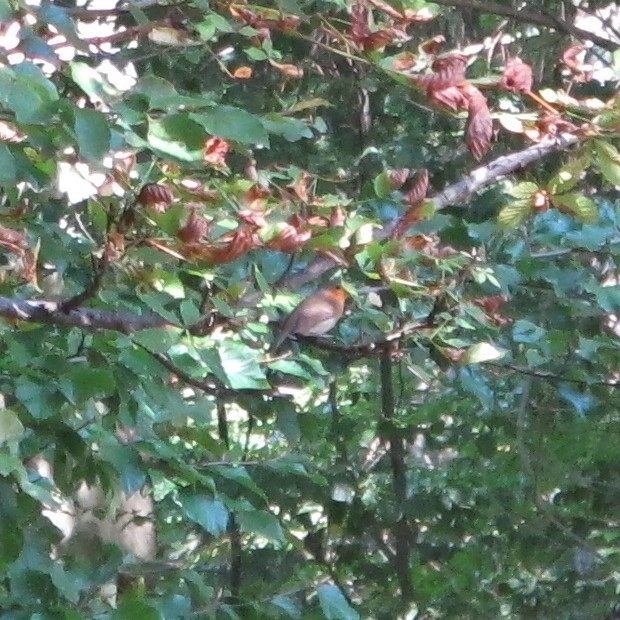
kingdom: Animalia
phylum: Chordata
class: Aves
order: Passeriformes
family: Muscicapidae
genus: Erithacus
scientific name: Erithacus rubecula
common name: European robin
